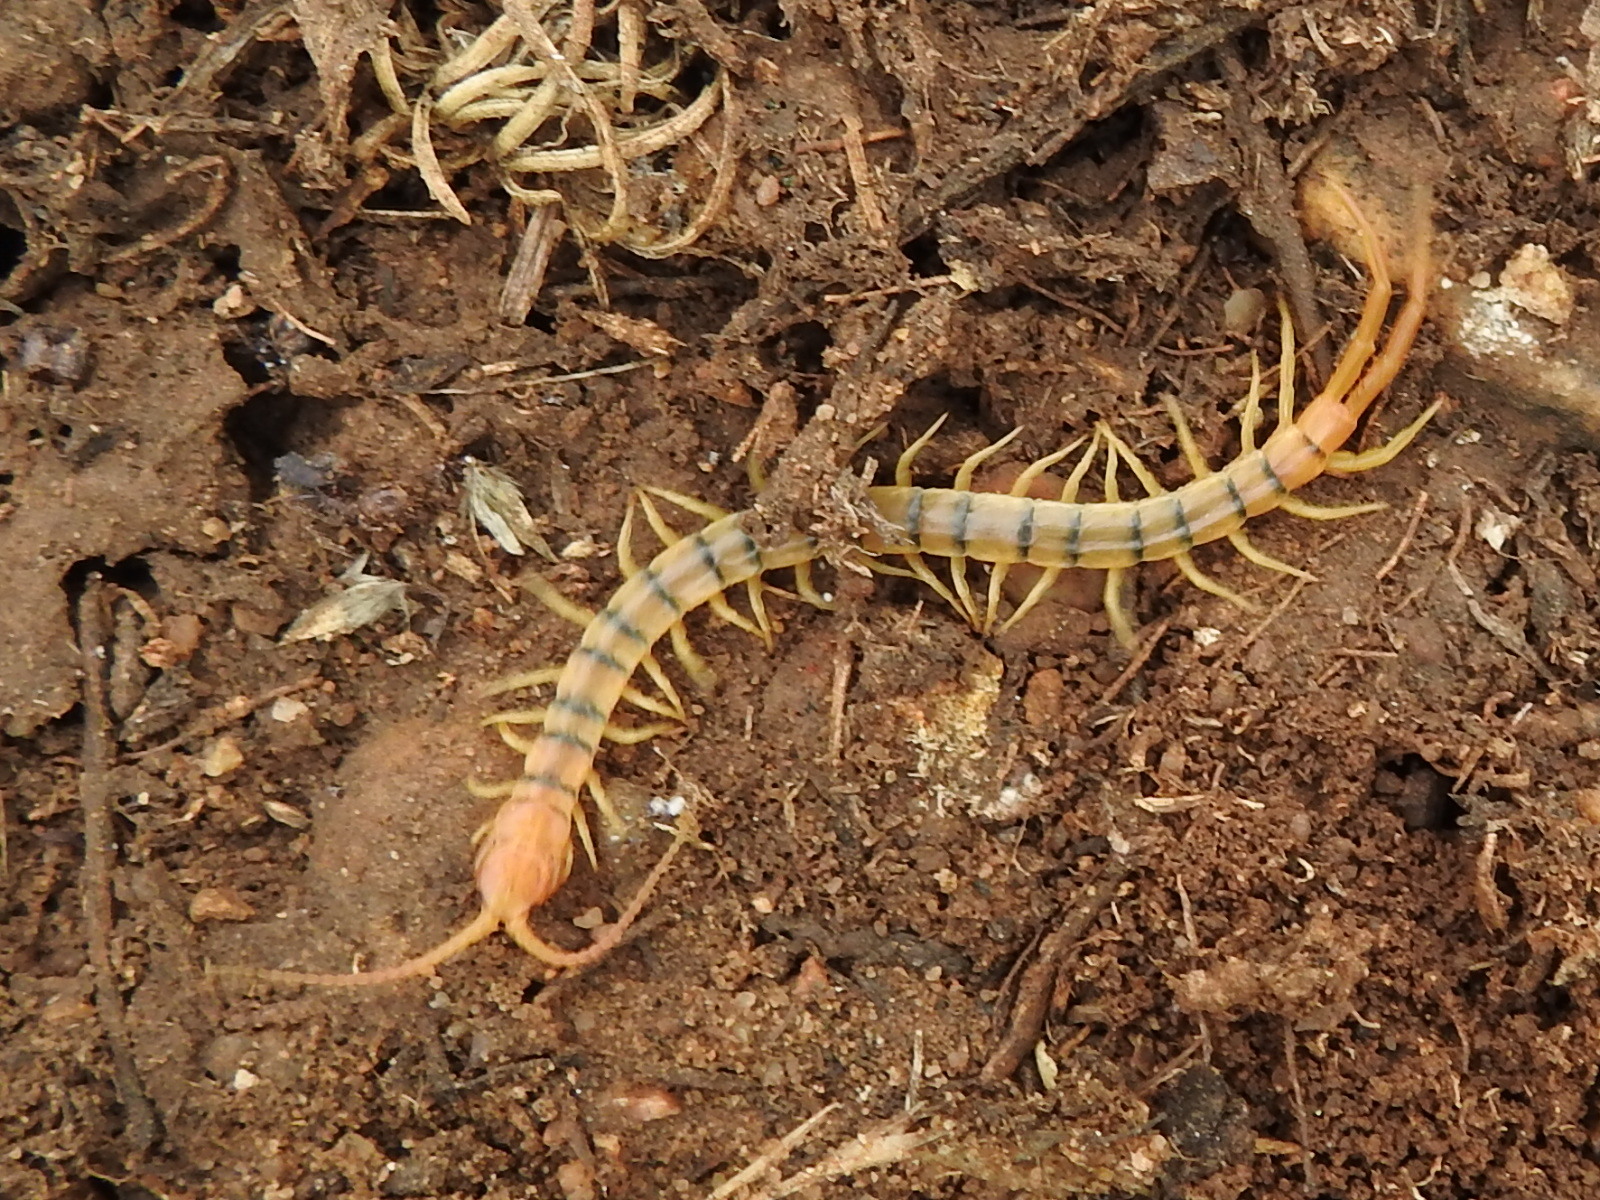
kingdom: Animalia
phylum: Arthropoda
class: Chilopoda
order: Scolopendromorpha
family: Scolopendridae
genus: Scolopendra
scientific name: Scolopendra polymorpha
